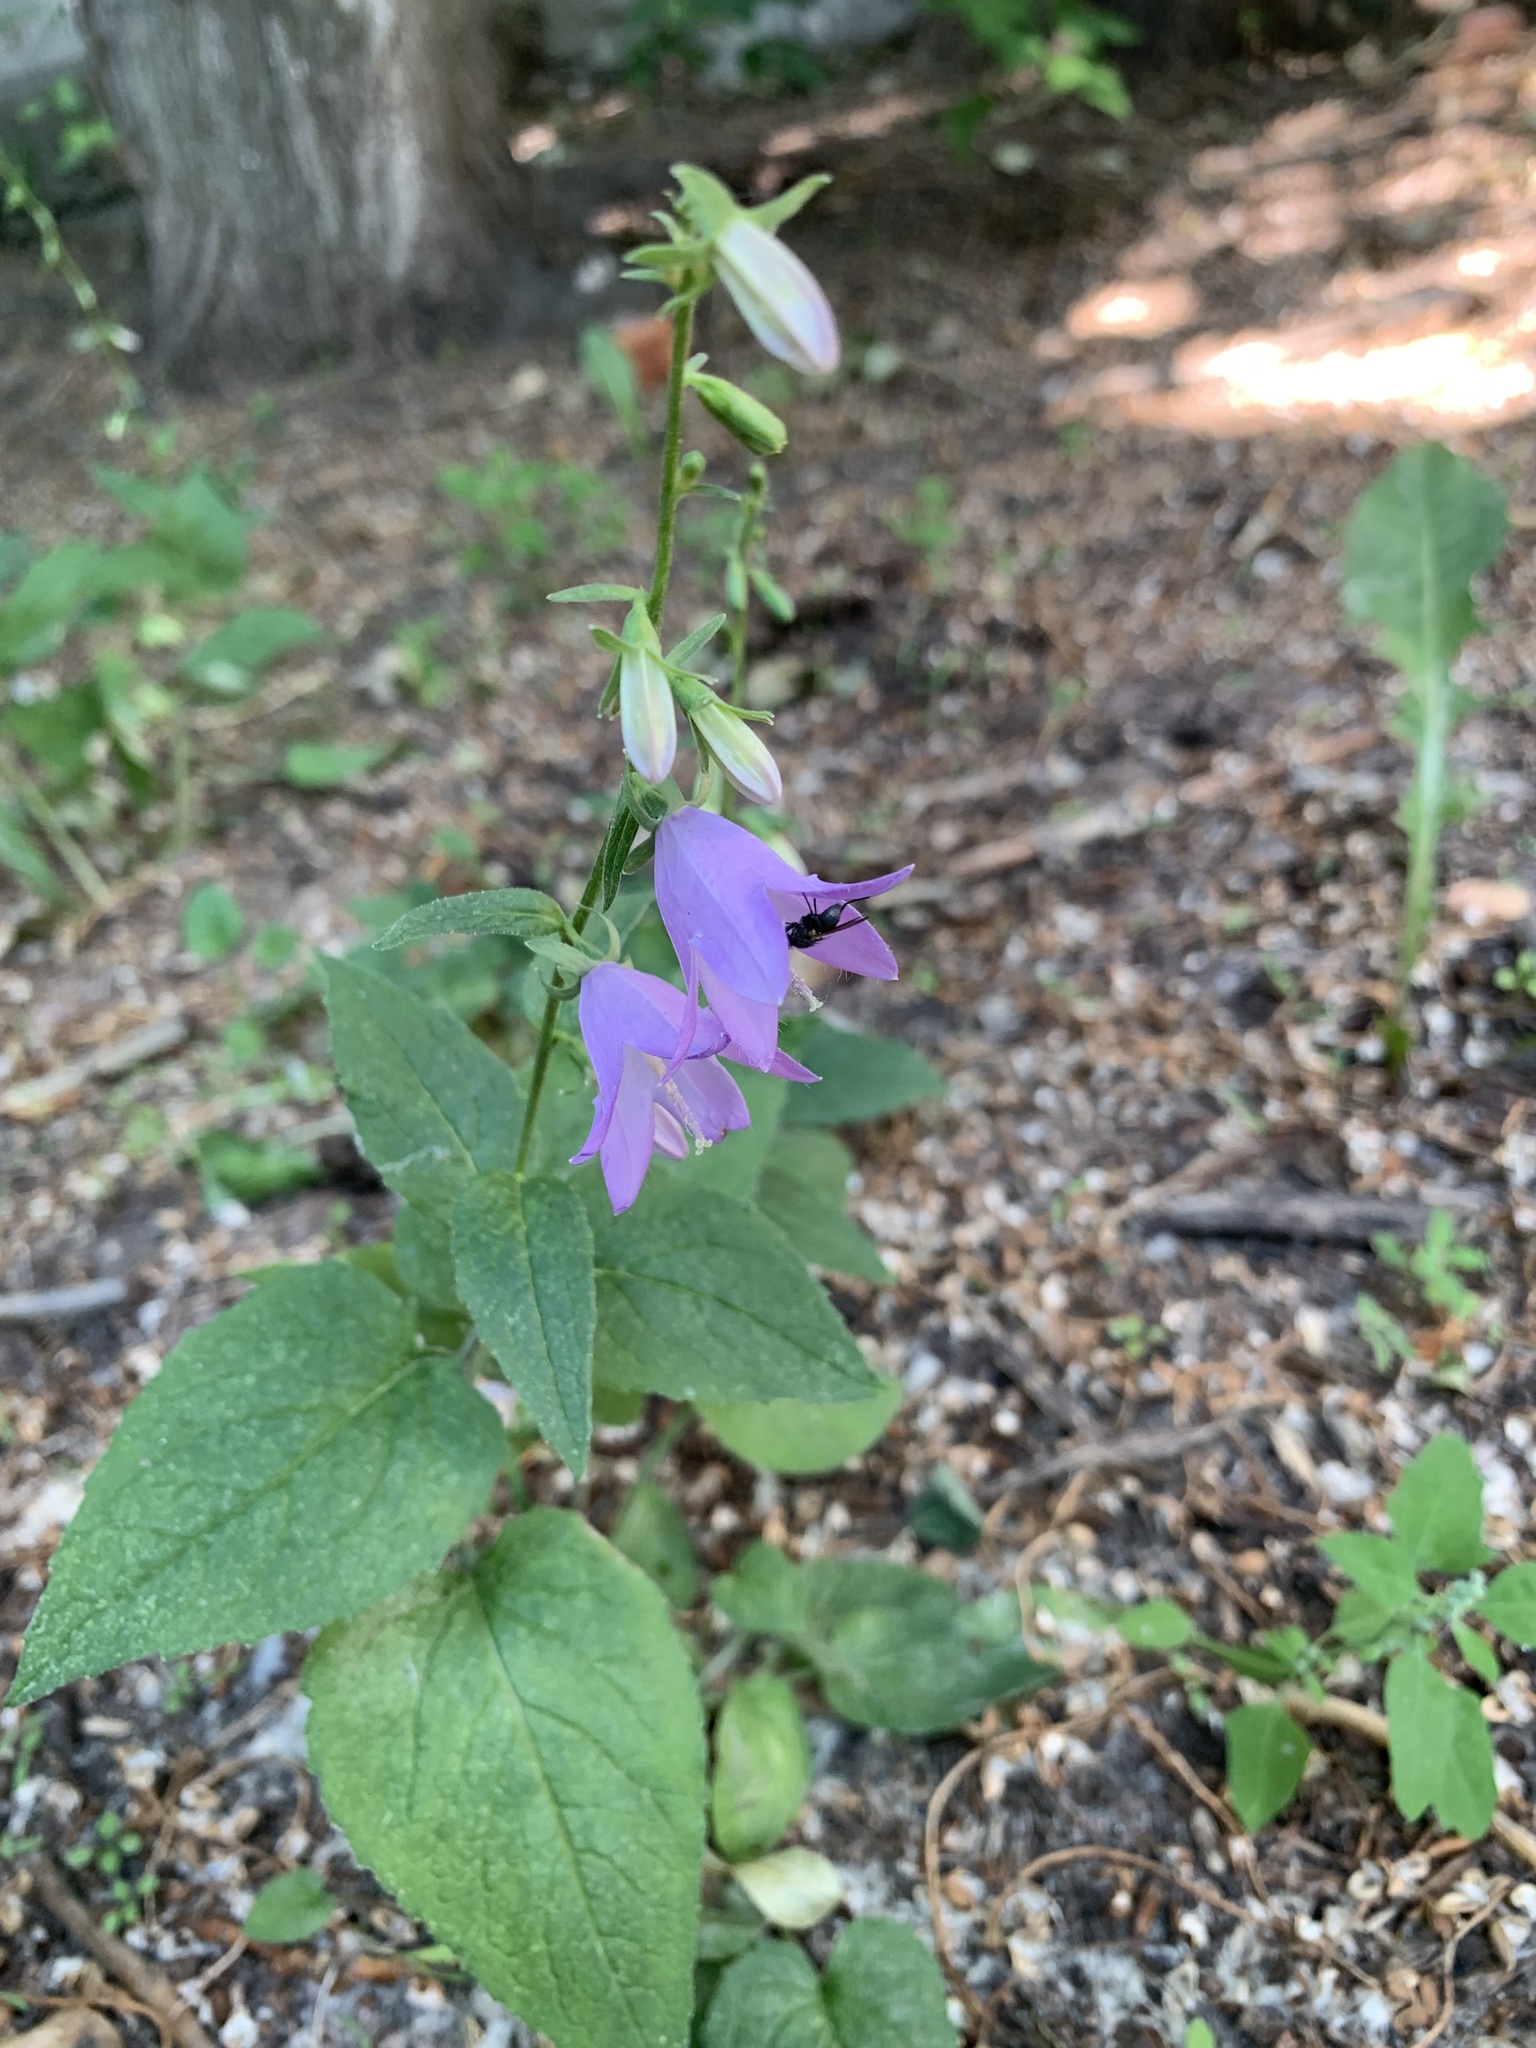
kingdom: Plantae
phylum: Tracheophyta
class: Magnoliopsida
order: Asterales
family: Campanulaceae
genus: Campanula
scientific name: Campanula rapunculoides
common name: Creeping bellflower
